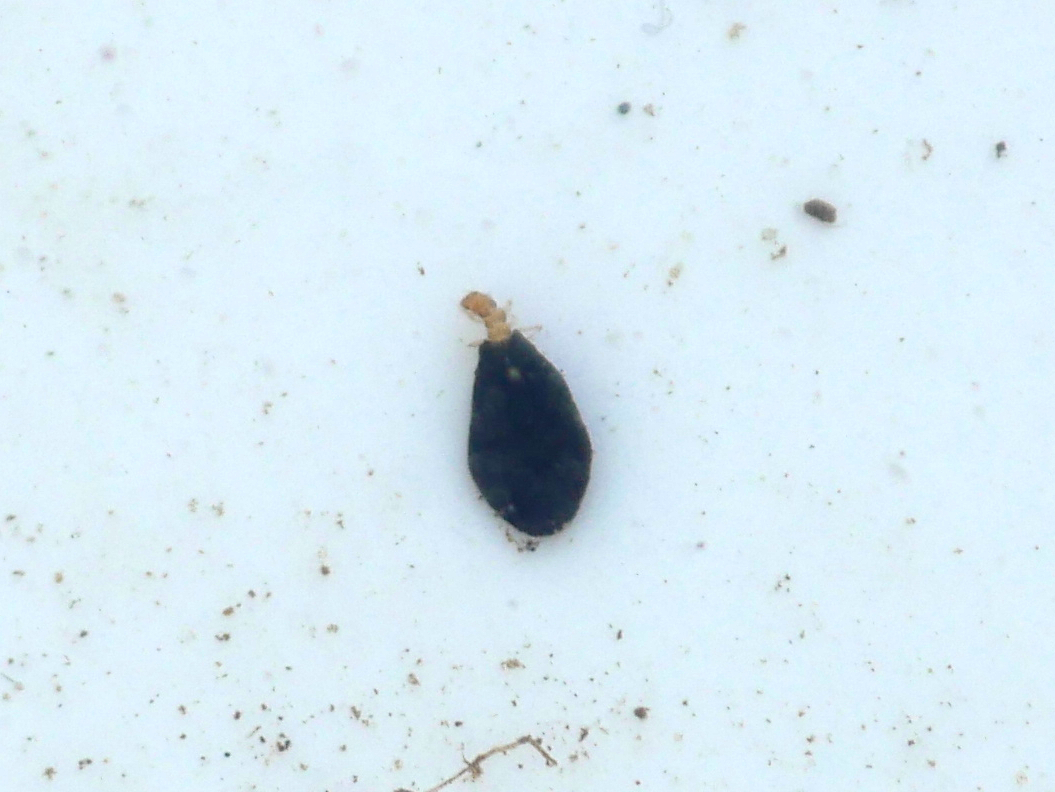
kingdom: Animalia
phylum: Arthropoda
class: Insecta
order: Trichoptera
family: Hydroptilidae
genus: Ithytrichia
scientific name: Ithytrichia lamellaris
